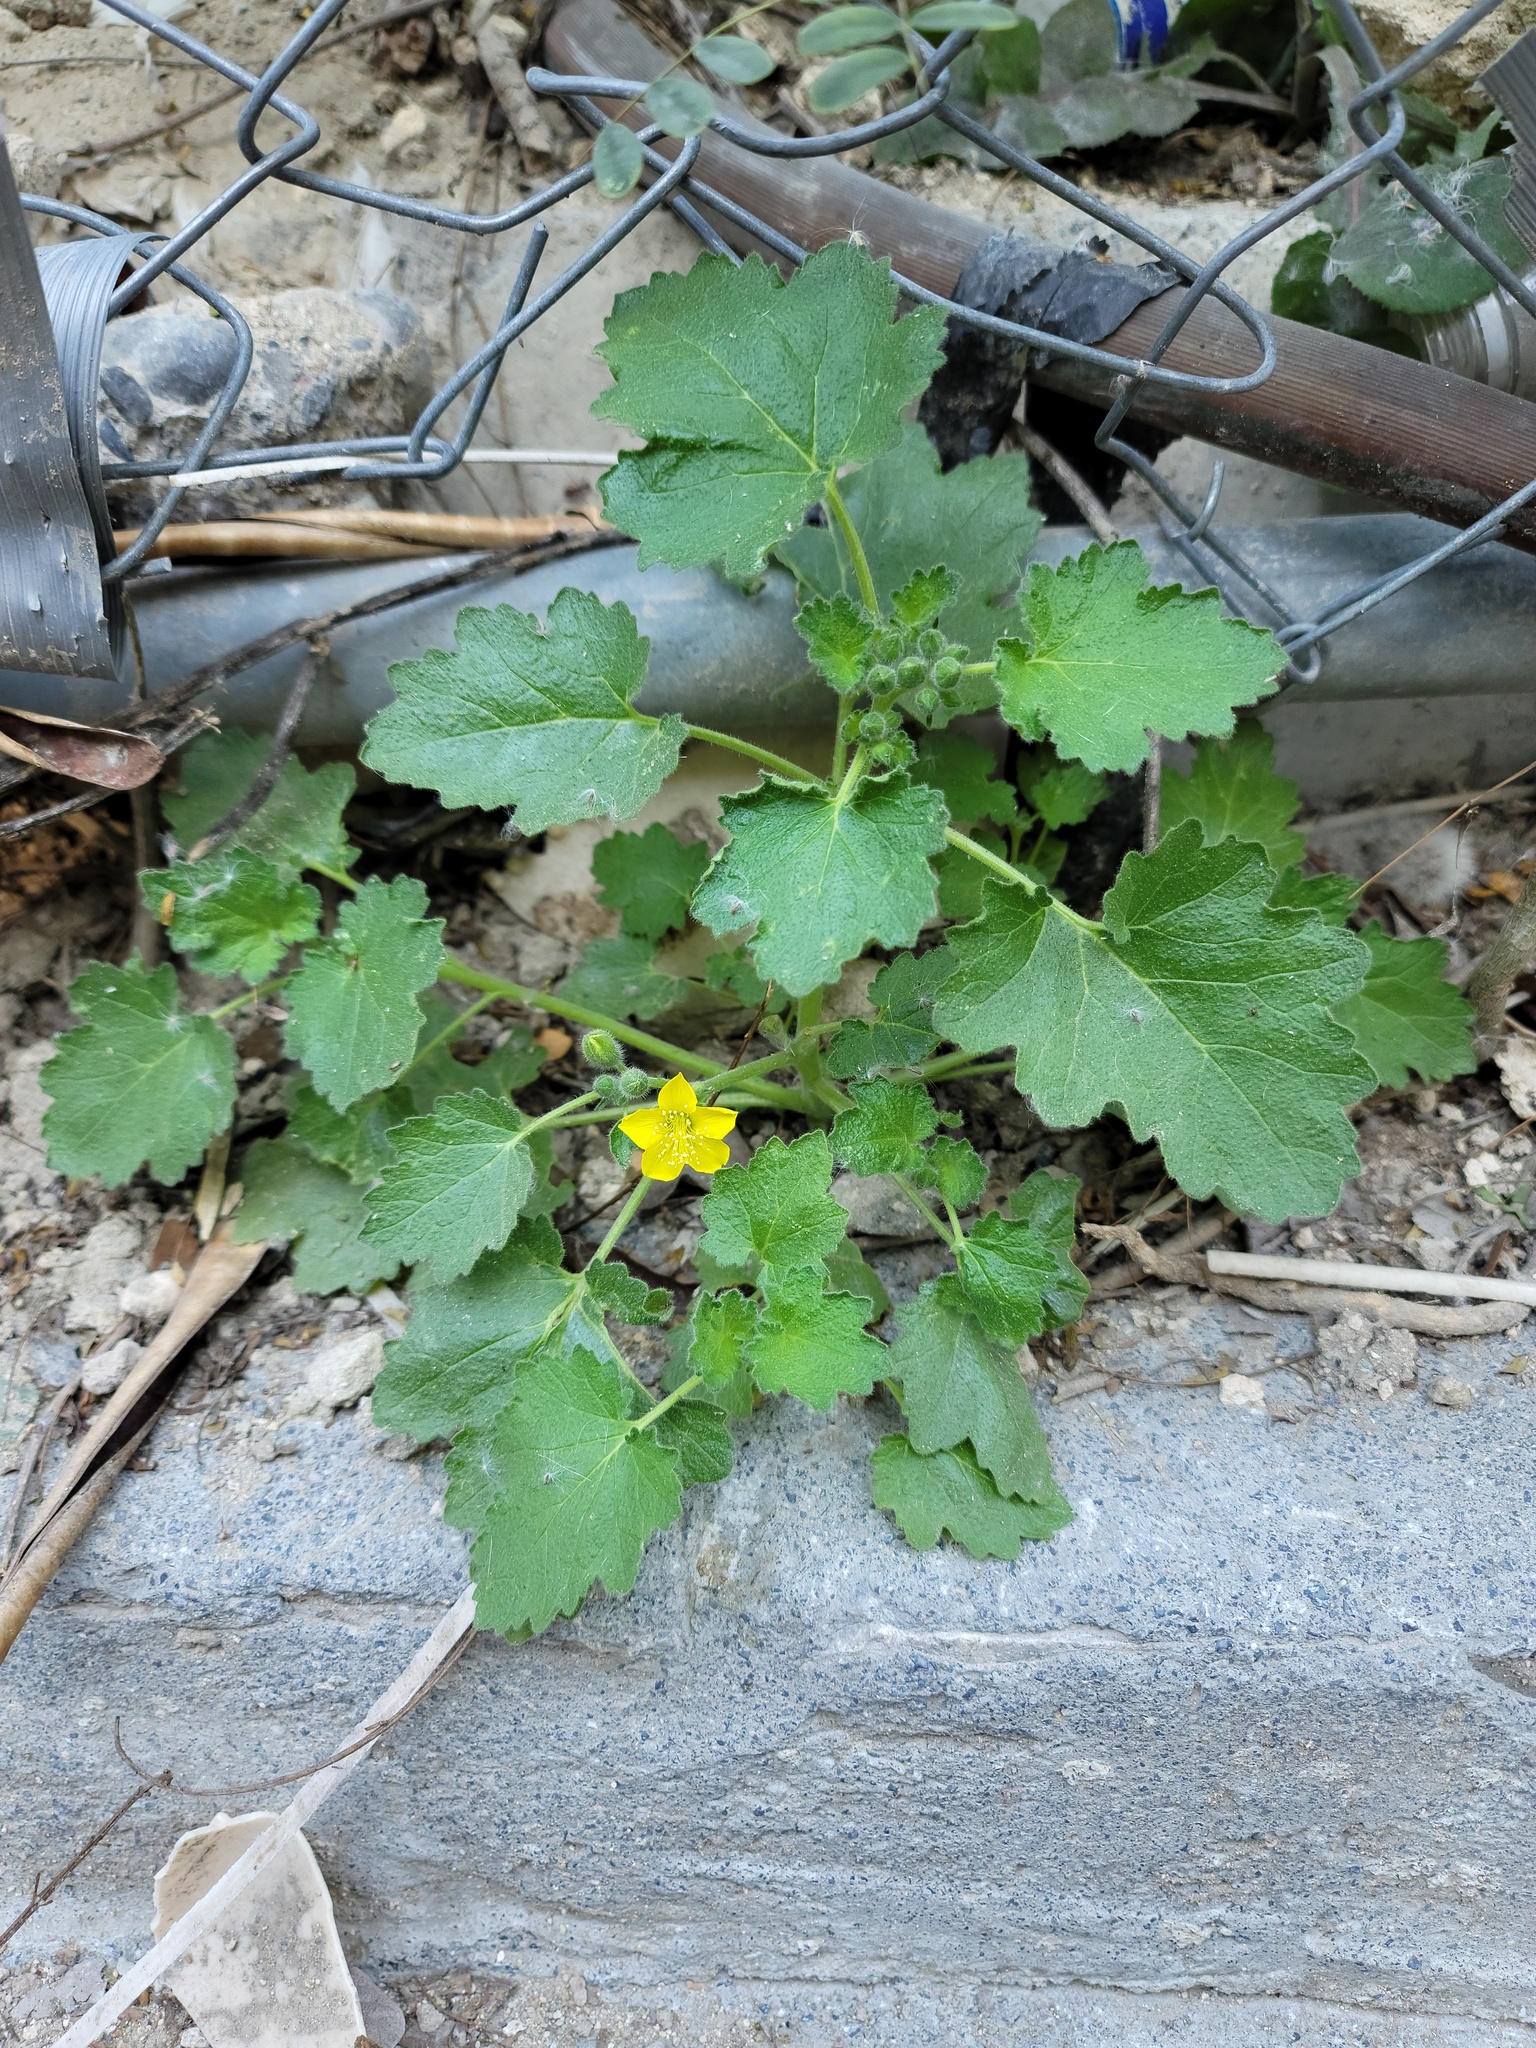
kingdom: Plantae
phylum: Tracheophyta
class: Magnoliopsida
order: Cornales
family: Loasaceae
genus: Eucnide
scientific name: Eucnide lobata
